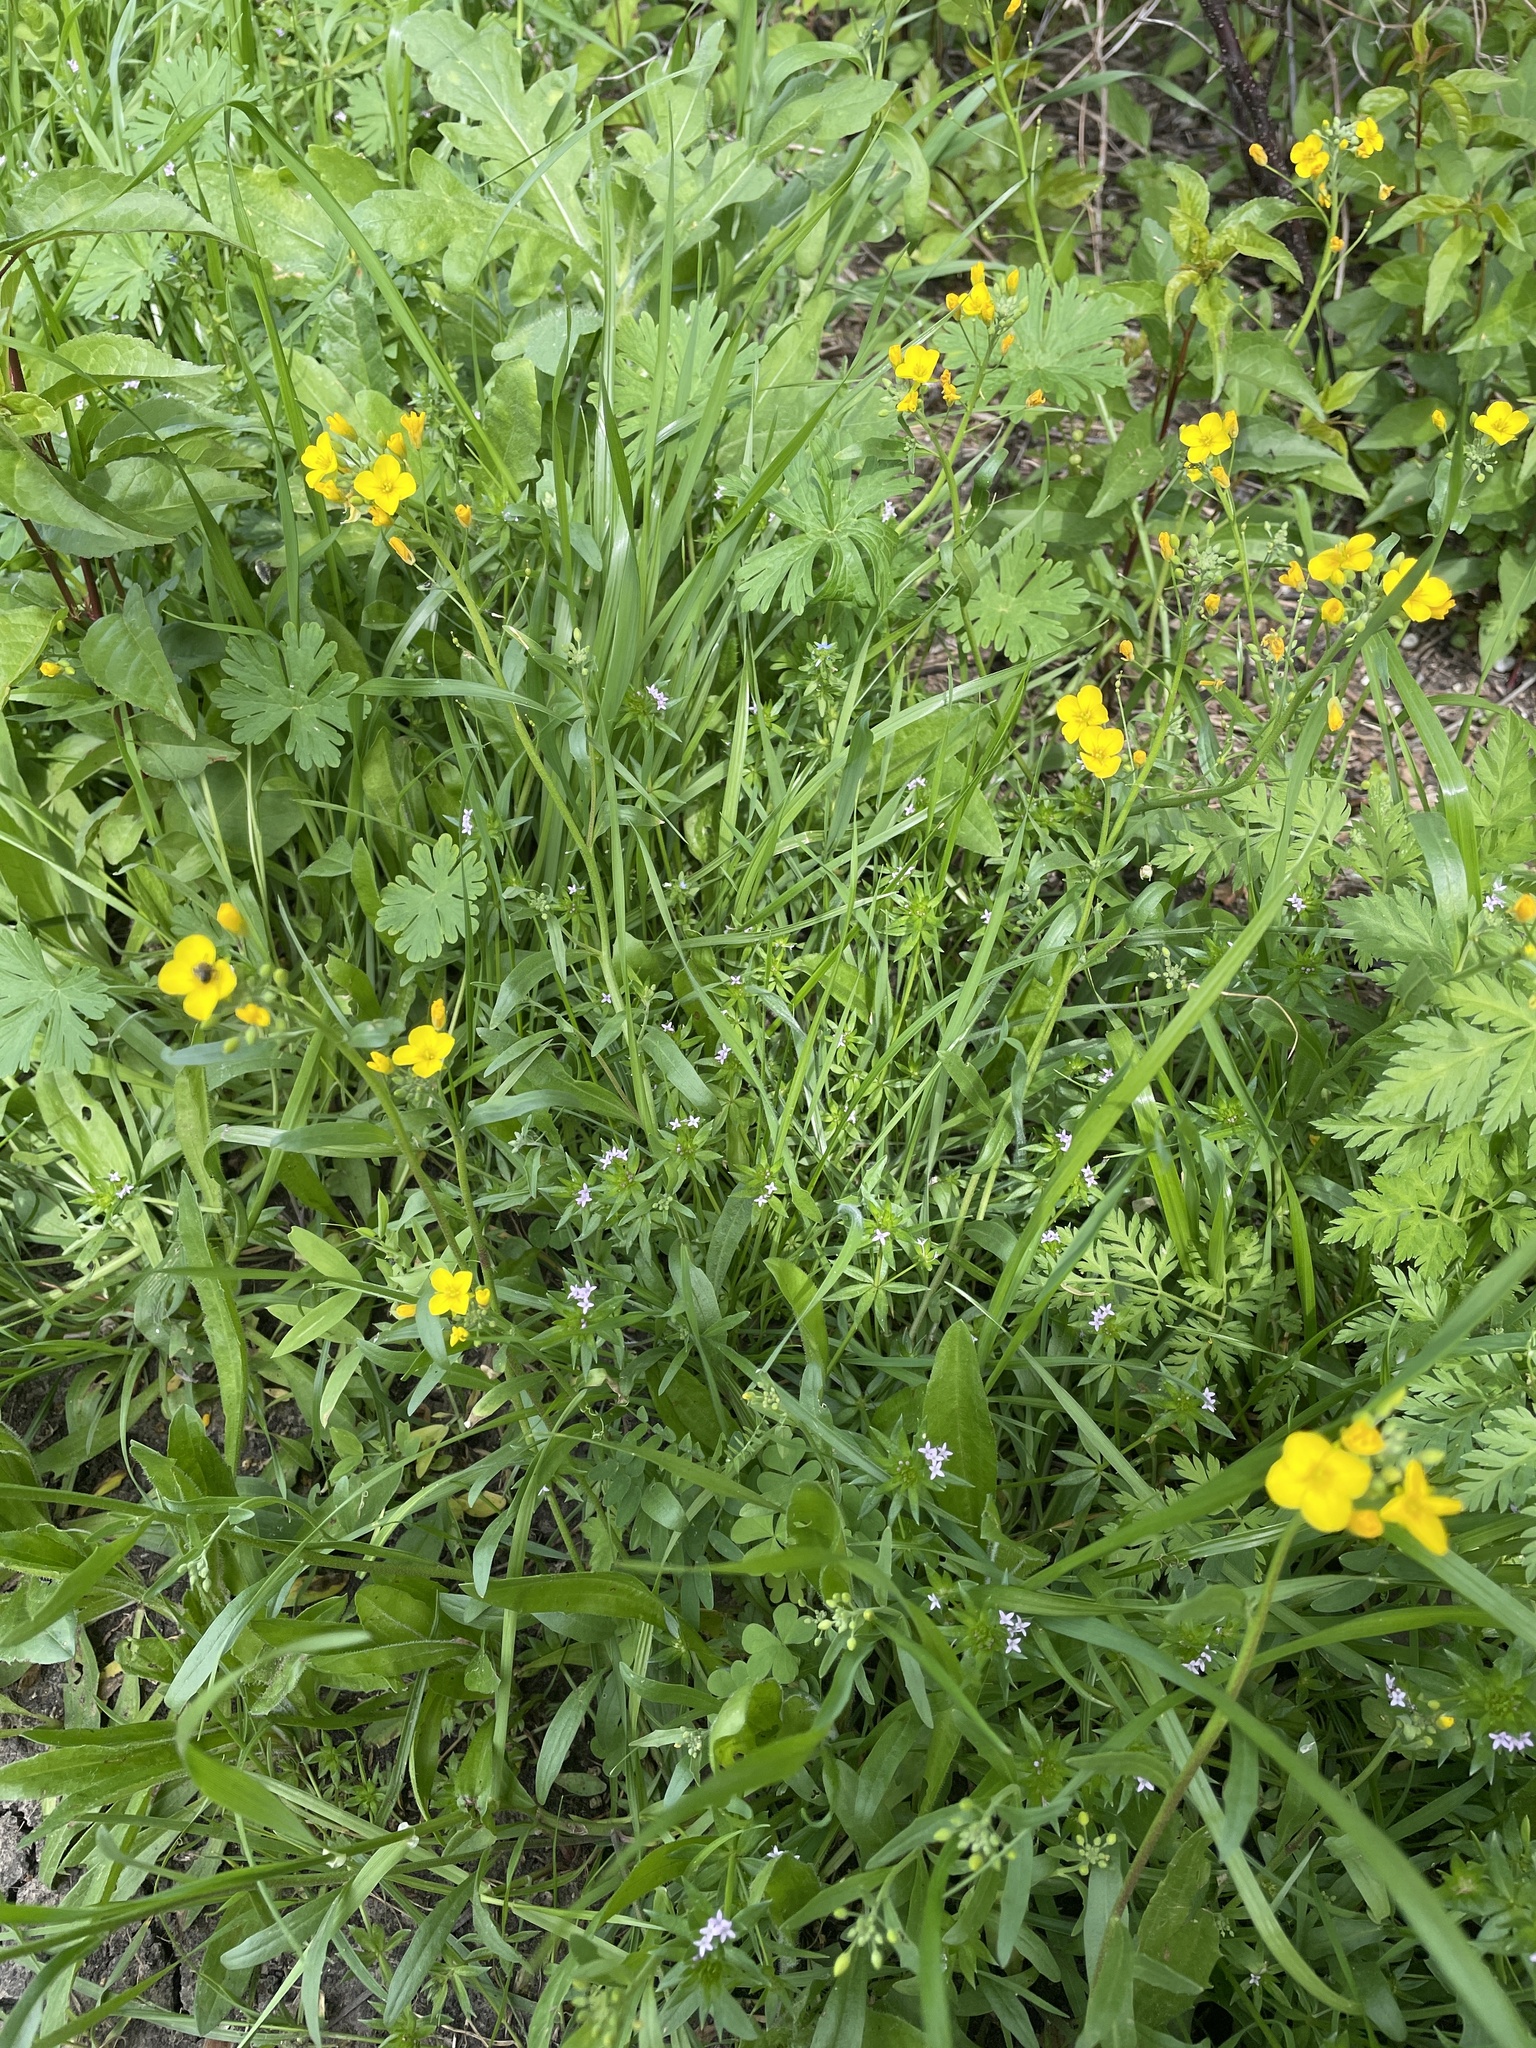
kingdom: Plantae
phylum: Tracheophyta
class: Magnoliopsida
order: Brassicales
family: Brassicaceae
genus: Physaria
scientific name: Physaria gracilis
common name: Spreading bladderpod
